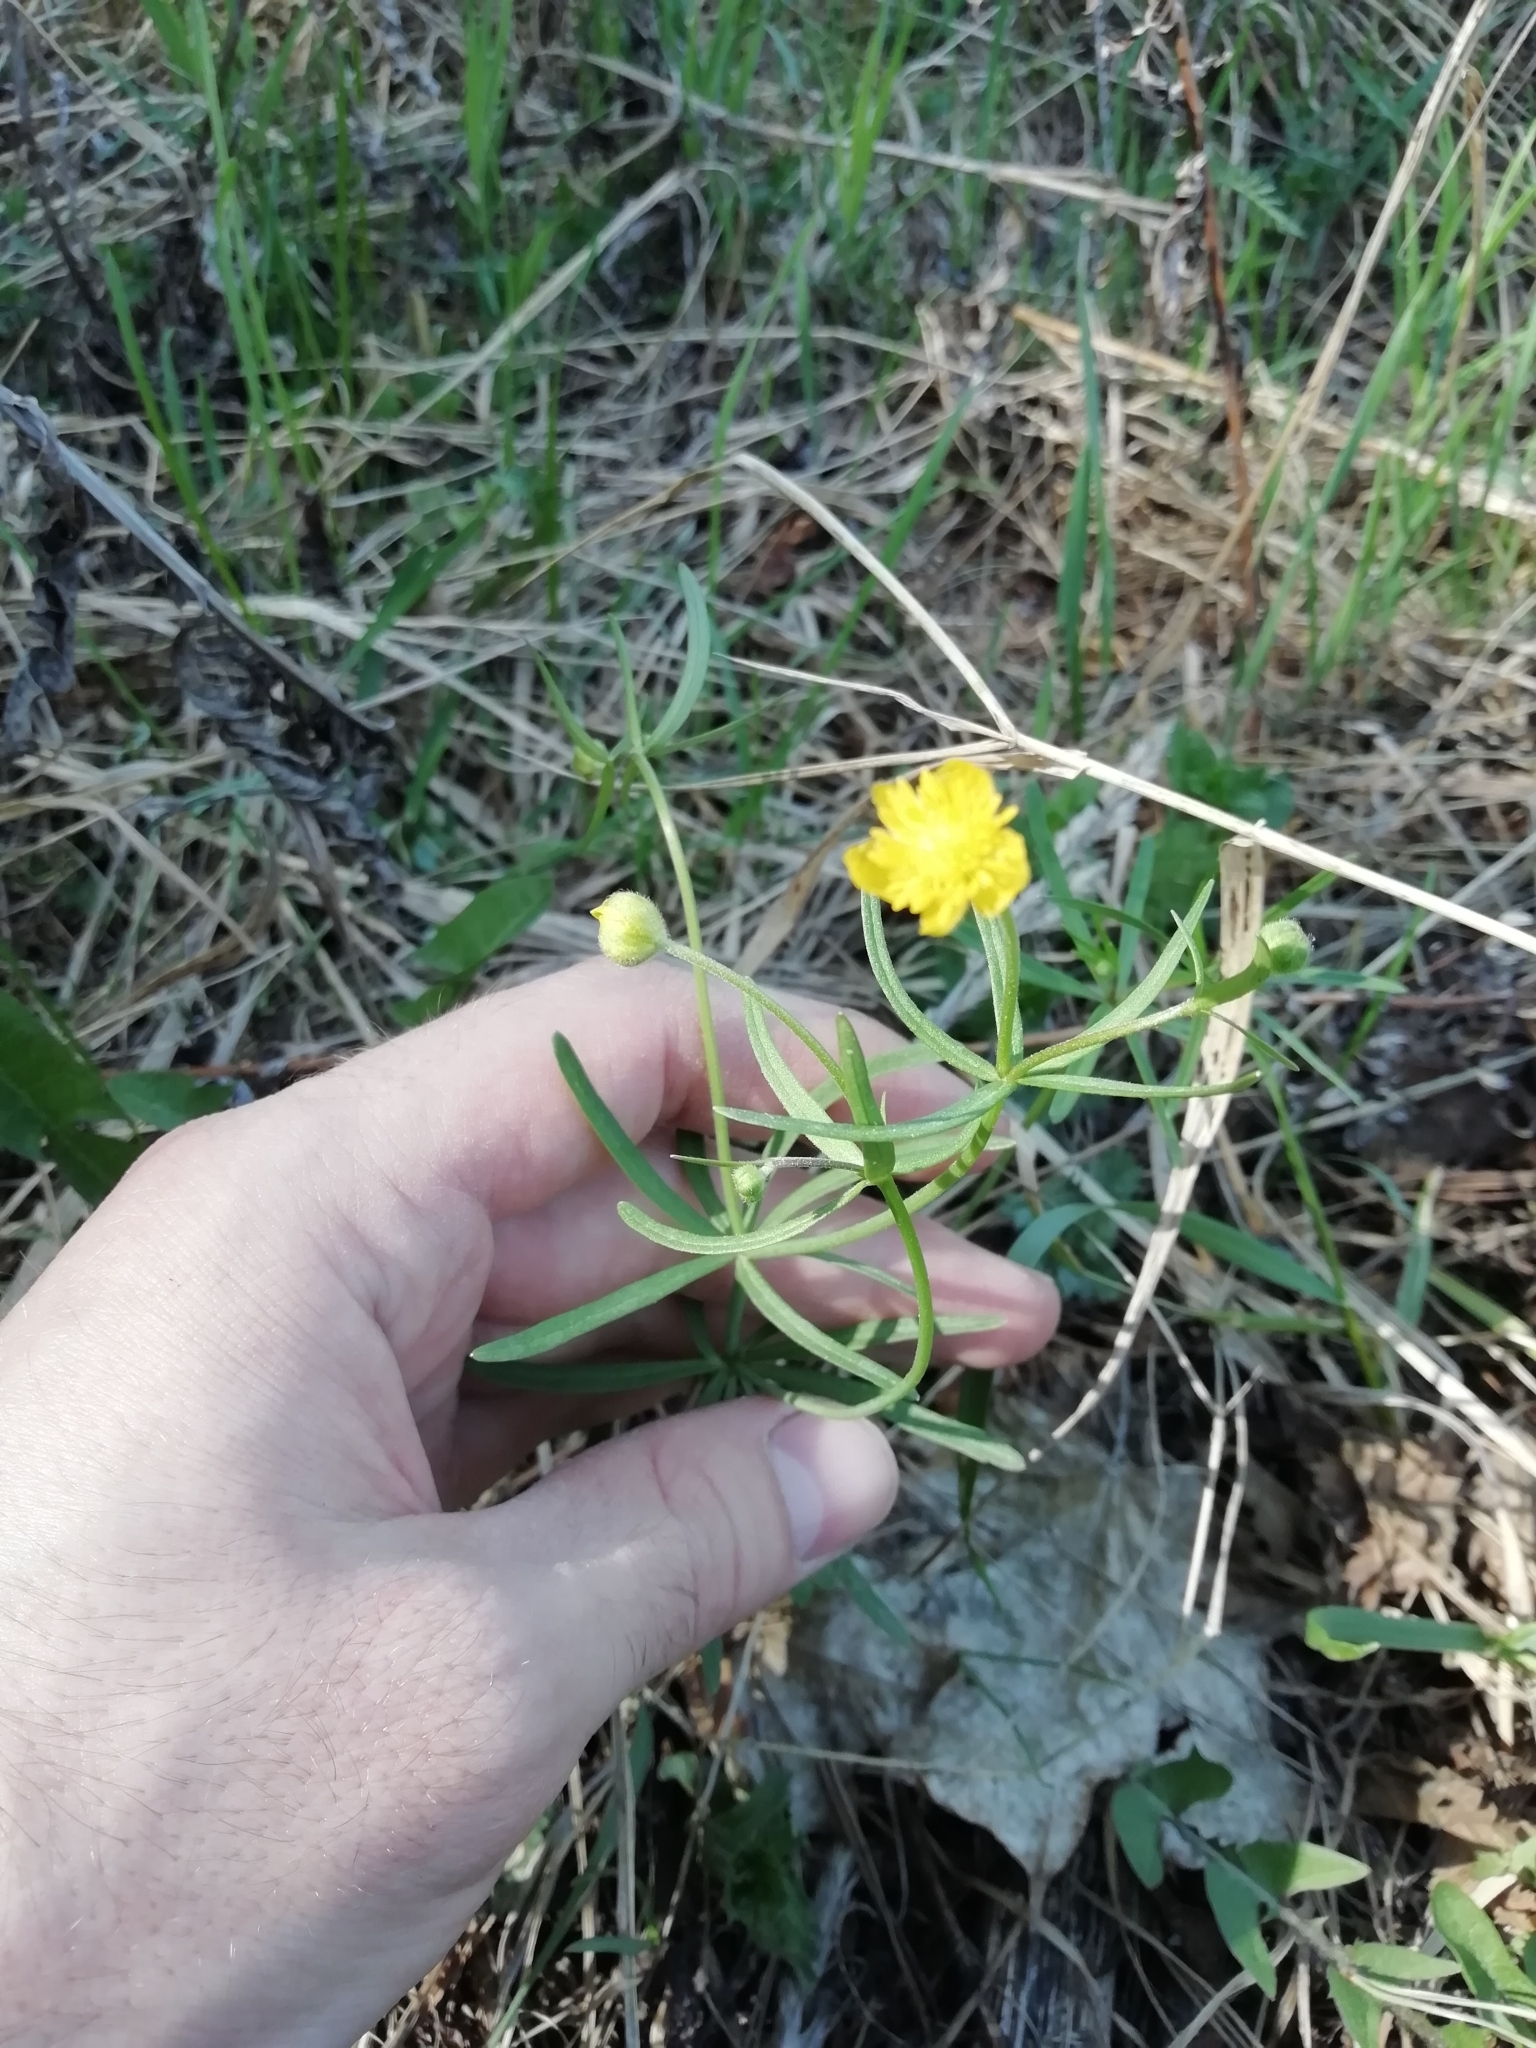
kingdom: Plantae
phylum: Tracheophyta
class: Magnoliopsida
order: Ranunculales
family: Ranunculaceae
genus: Ranunculus
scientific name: Ranunculus auricomus
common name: Goldilocks buttercup
